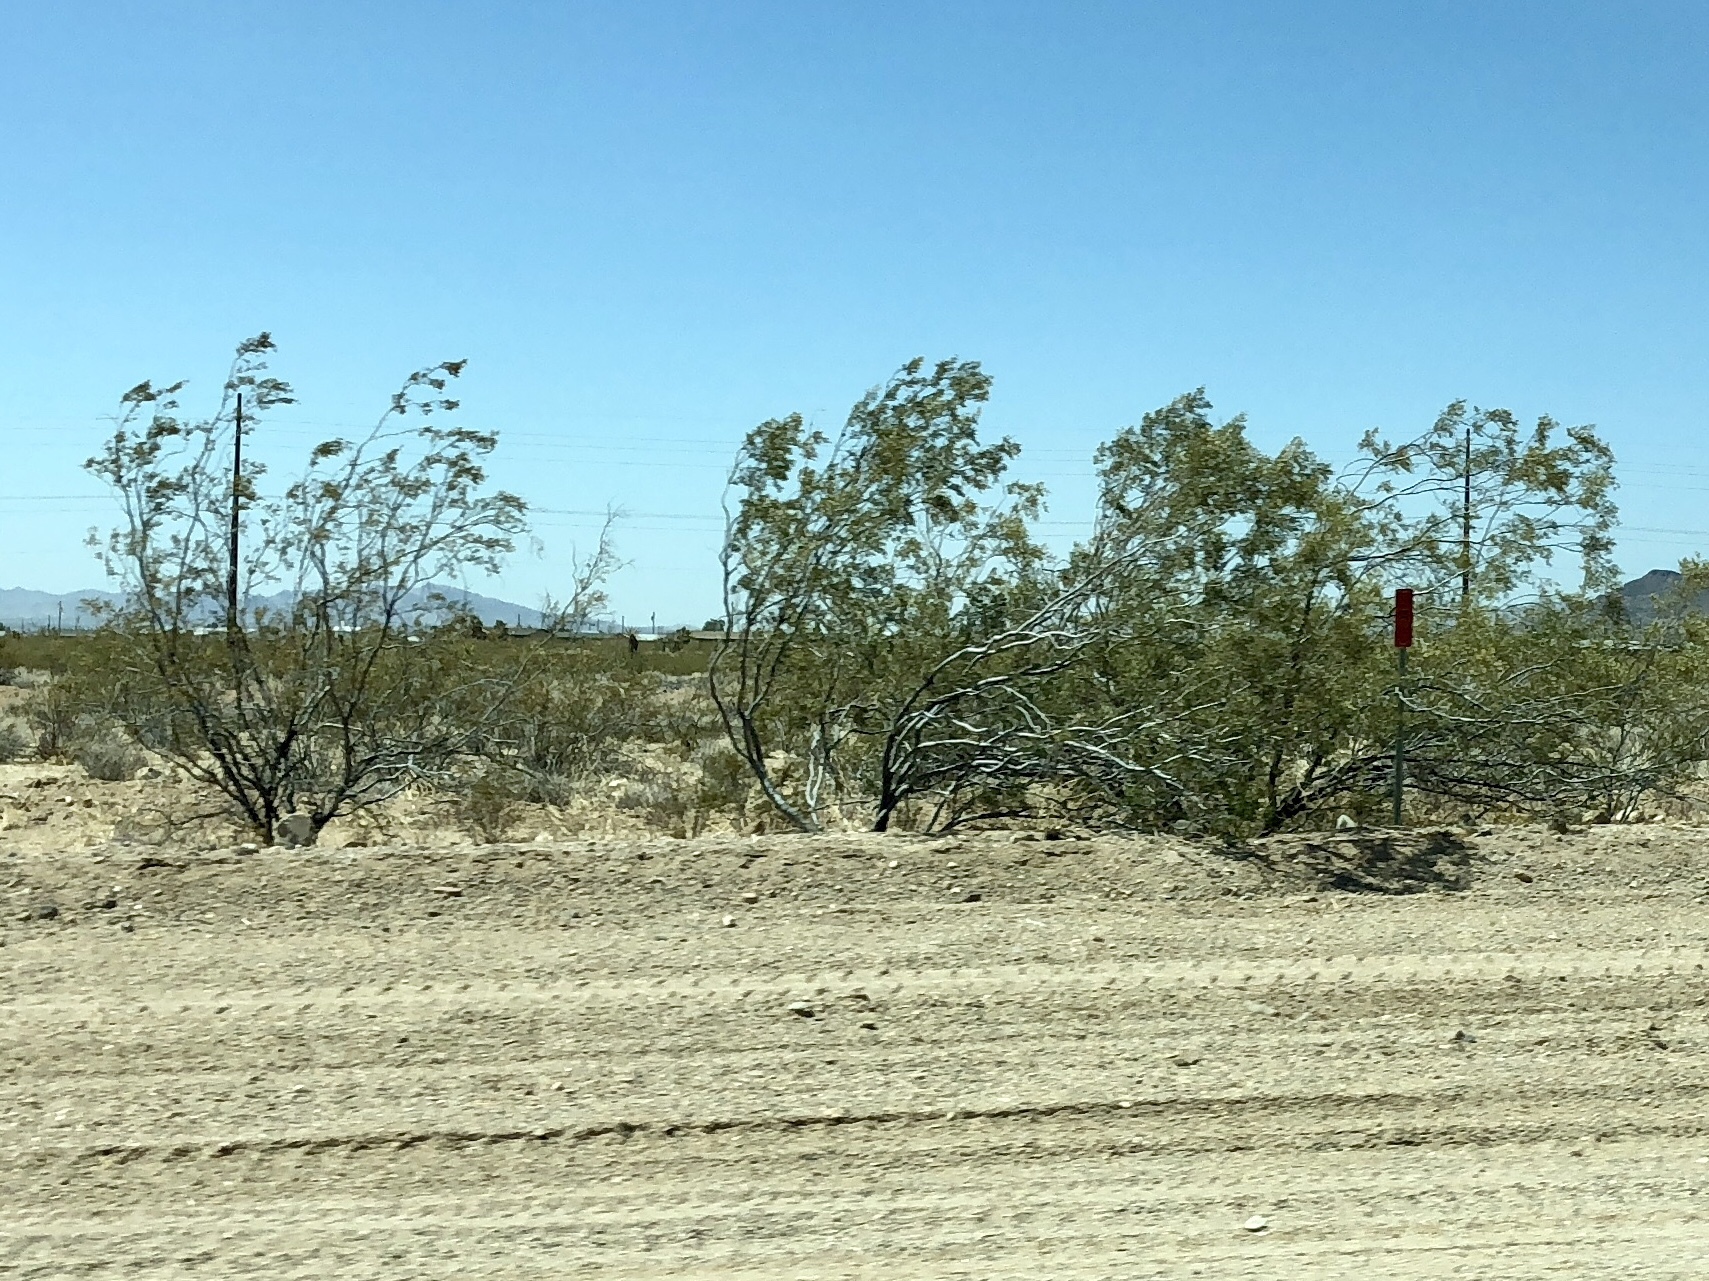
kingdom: Plantae
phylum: Tracheophyta
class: Magnoliopsida
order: Zygophyllales
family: Zygophyllaceae
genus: Larrea
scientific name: Larrea tridentata
